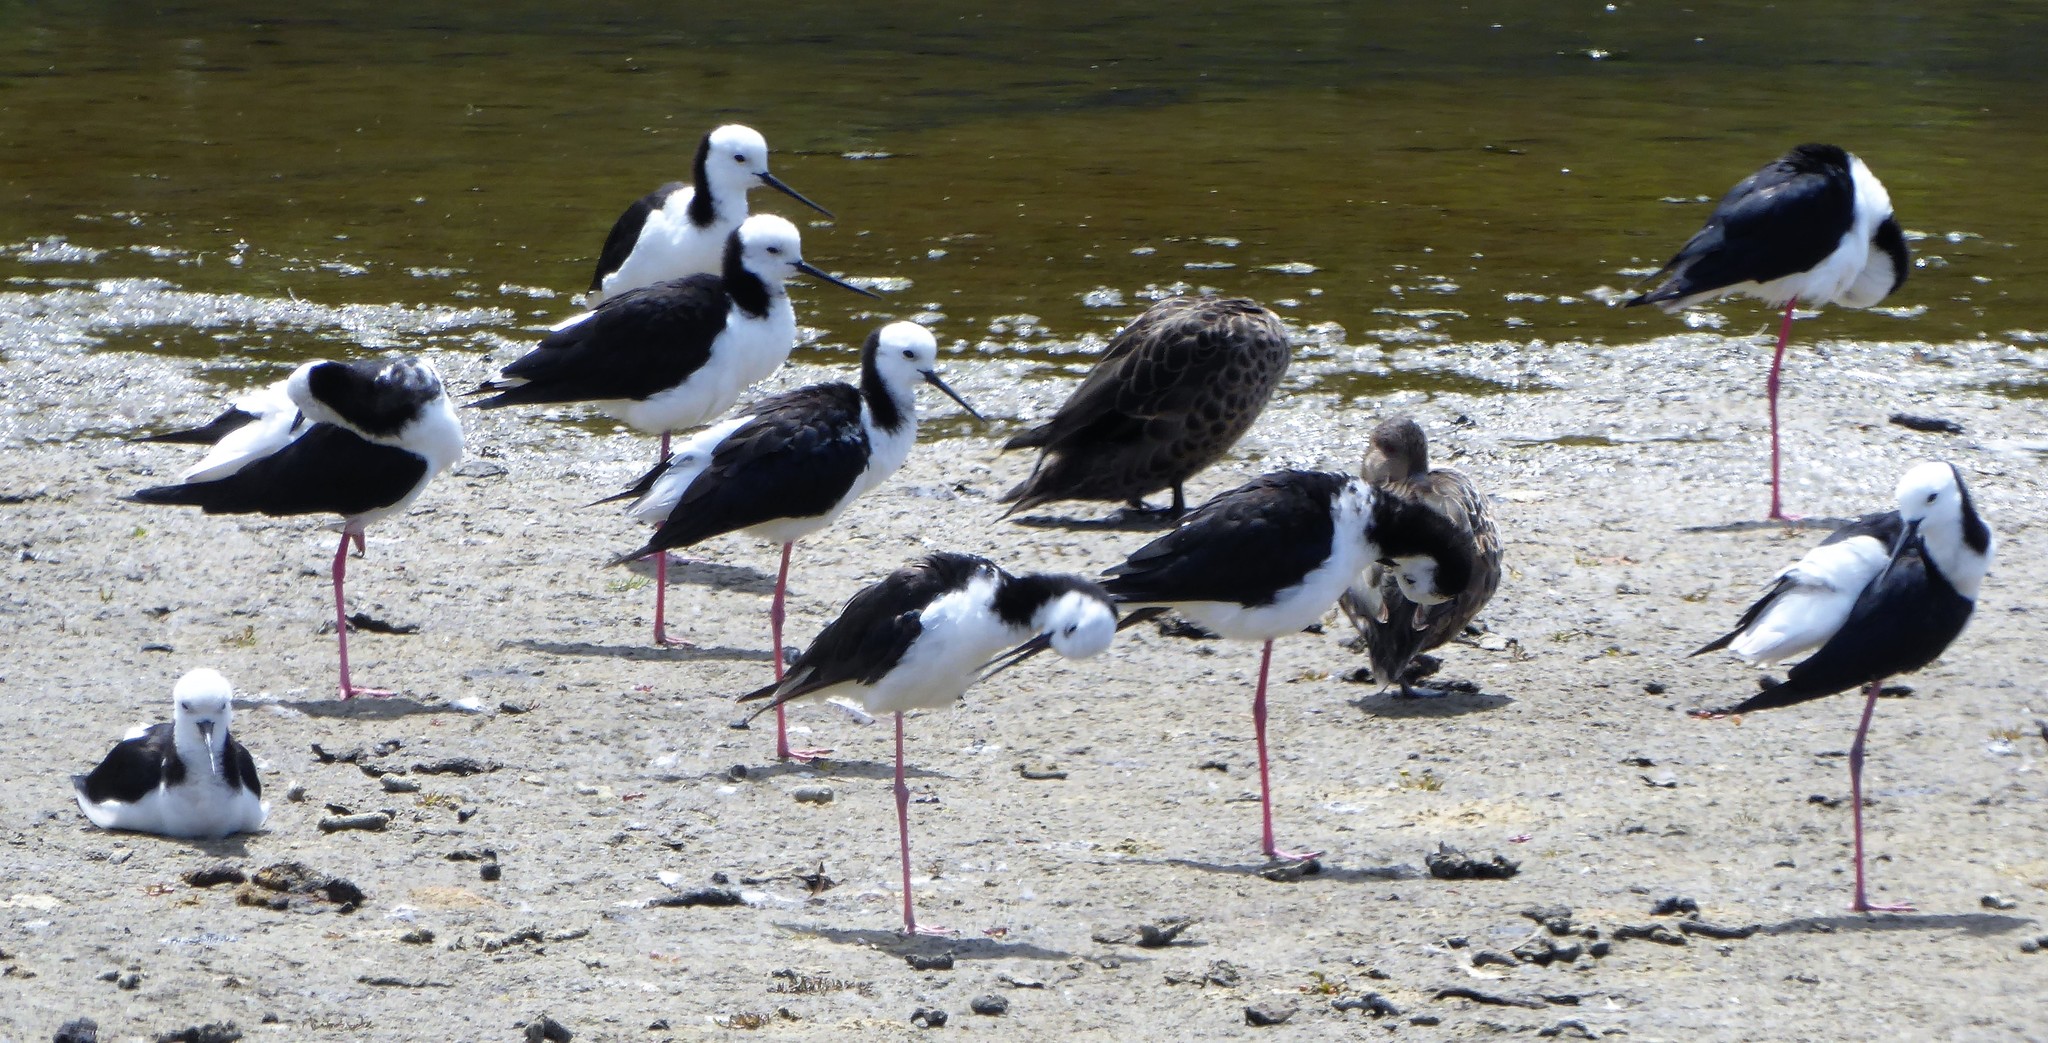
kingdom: Animalia
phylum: Chordata
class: Aves
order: Charadriiformes
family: Recurvirostridae
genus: Himantopus
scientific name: Himantopus leucocephalus
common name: White-headed stilt
